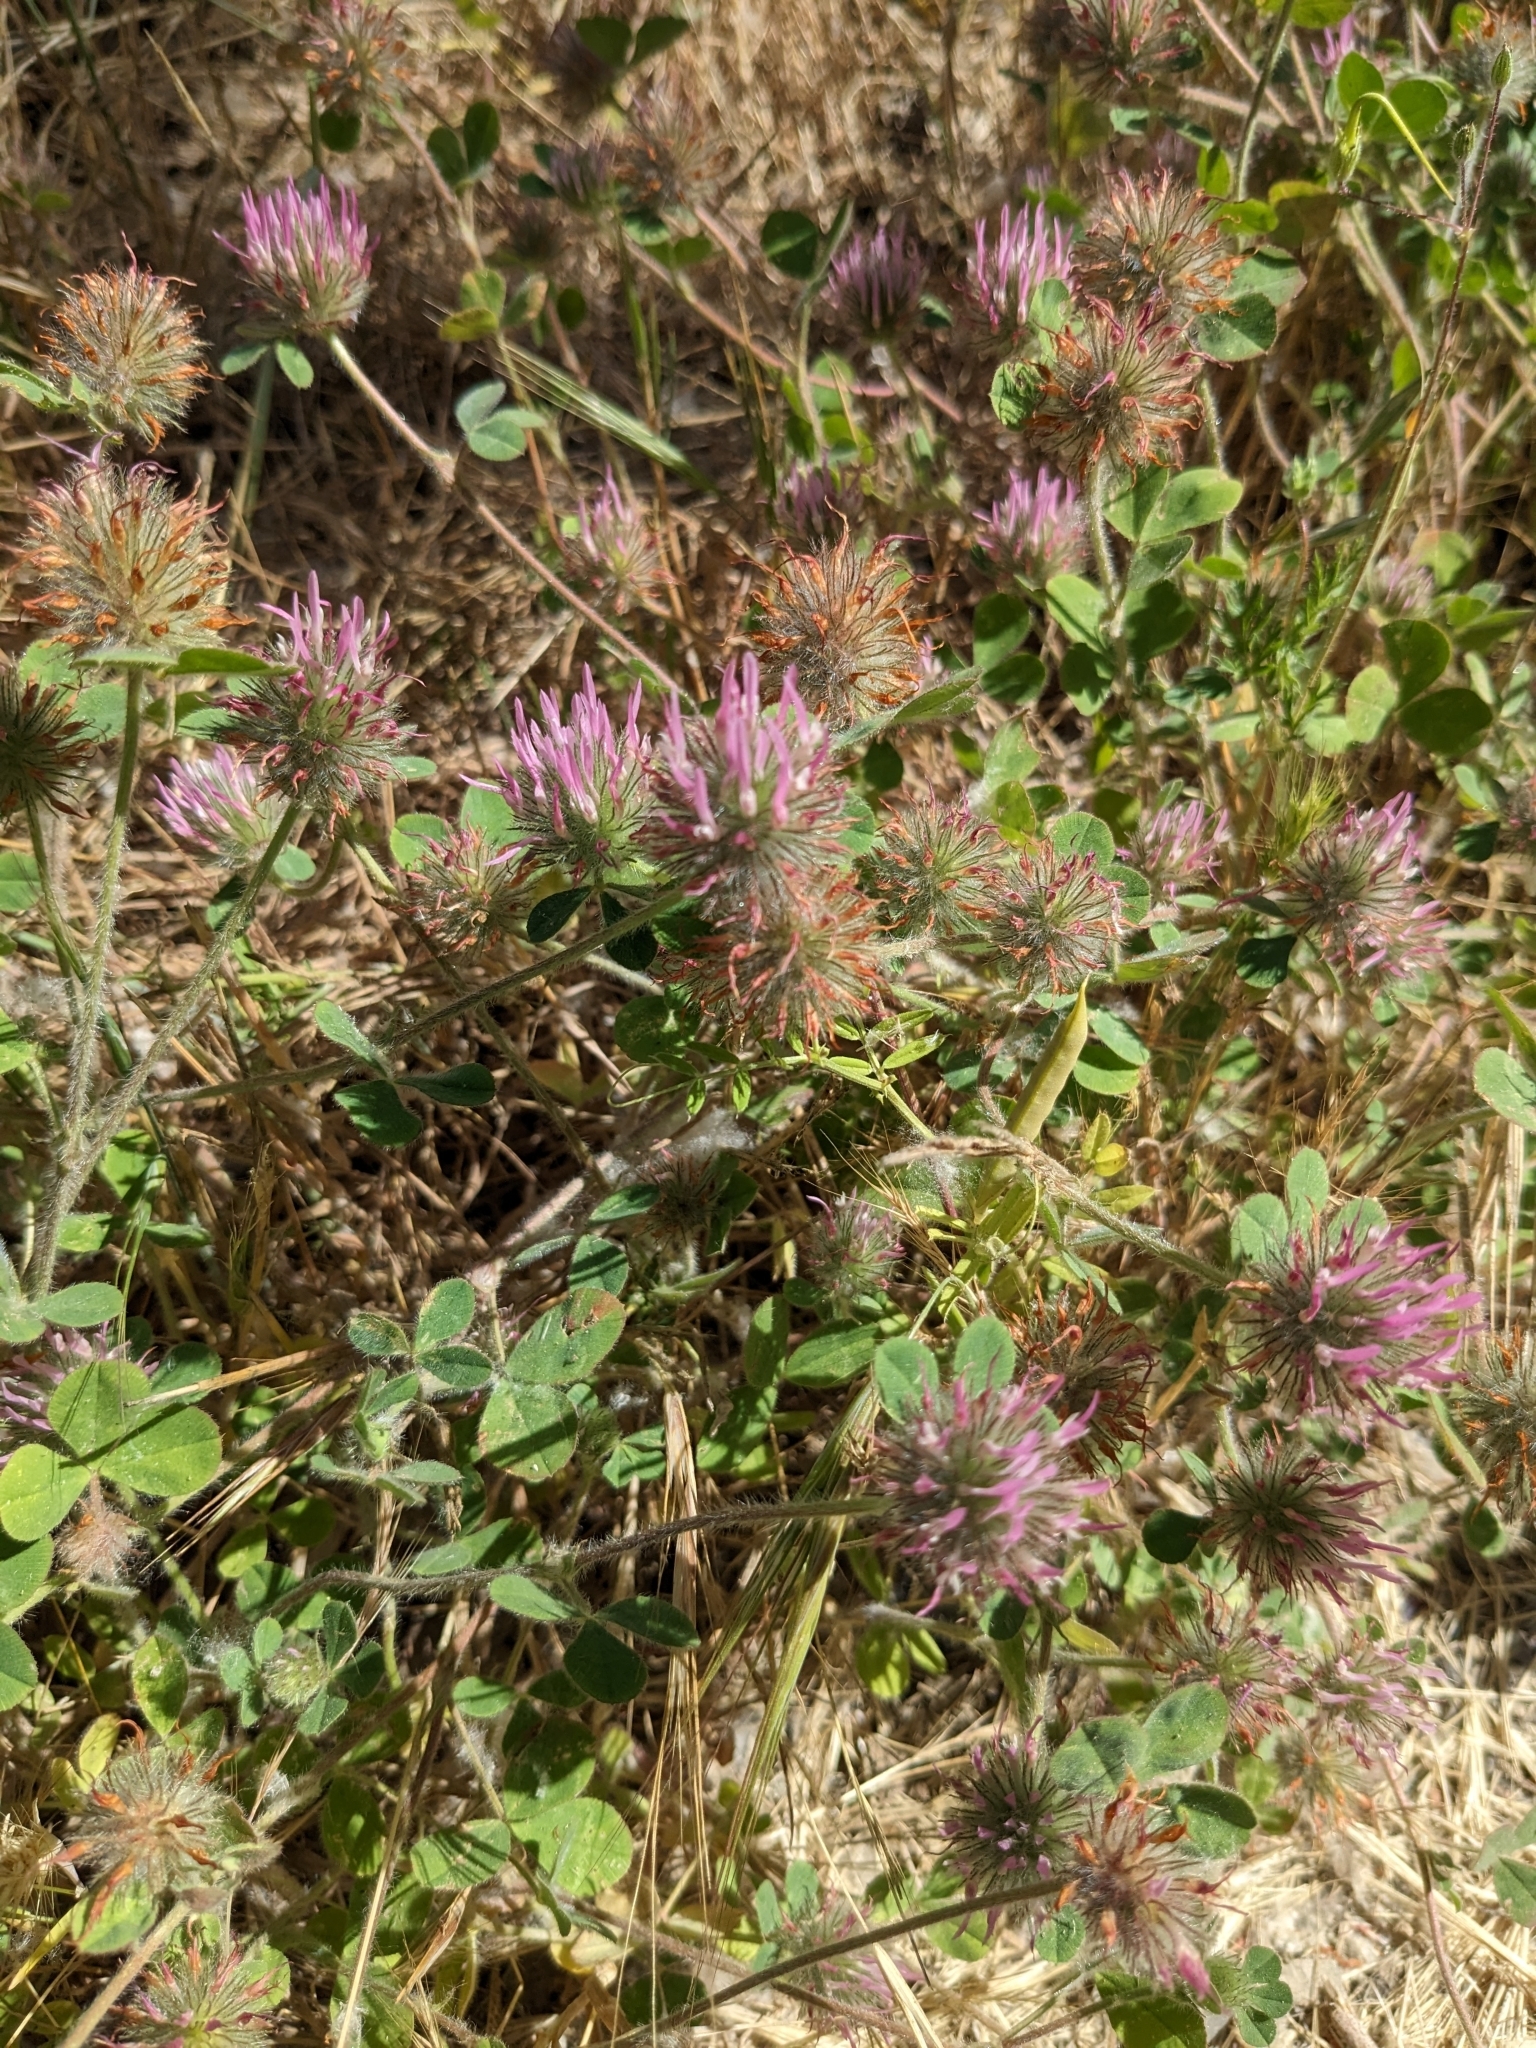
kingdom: Plantae
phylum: Tracheophyta
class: Magnoliopsida
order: Fabales
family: Fabaceae
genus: Trifolium
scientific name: Trifolium hirtum
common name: Rose clover
